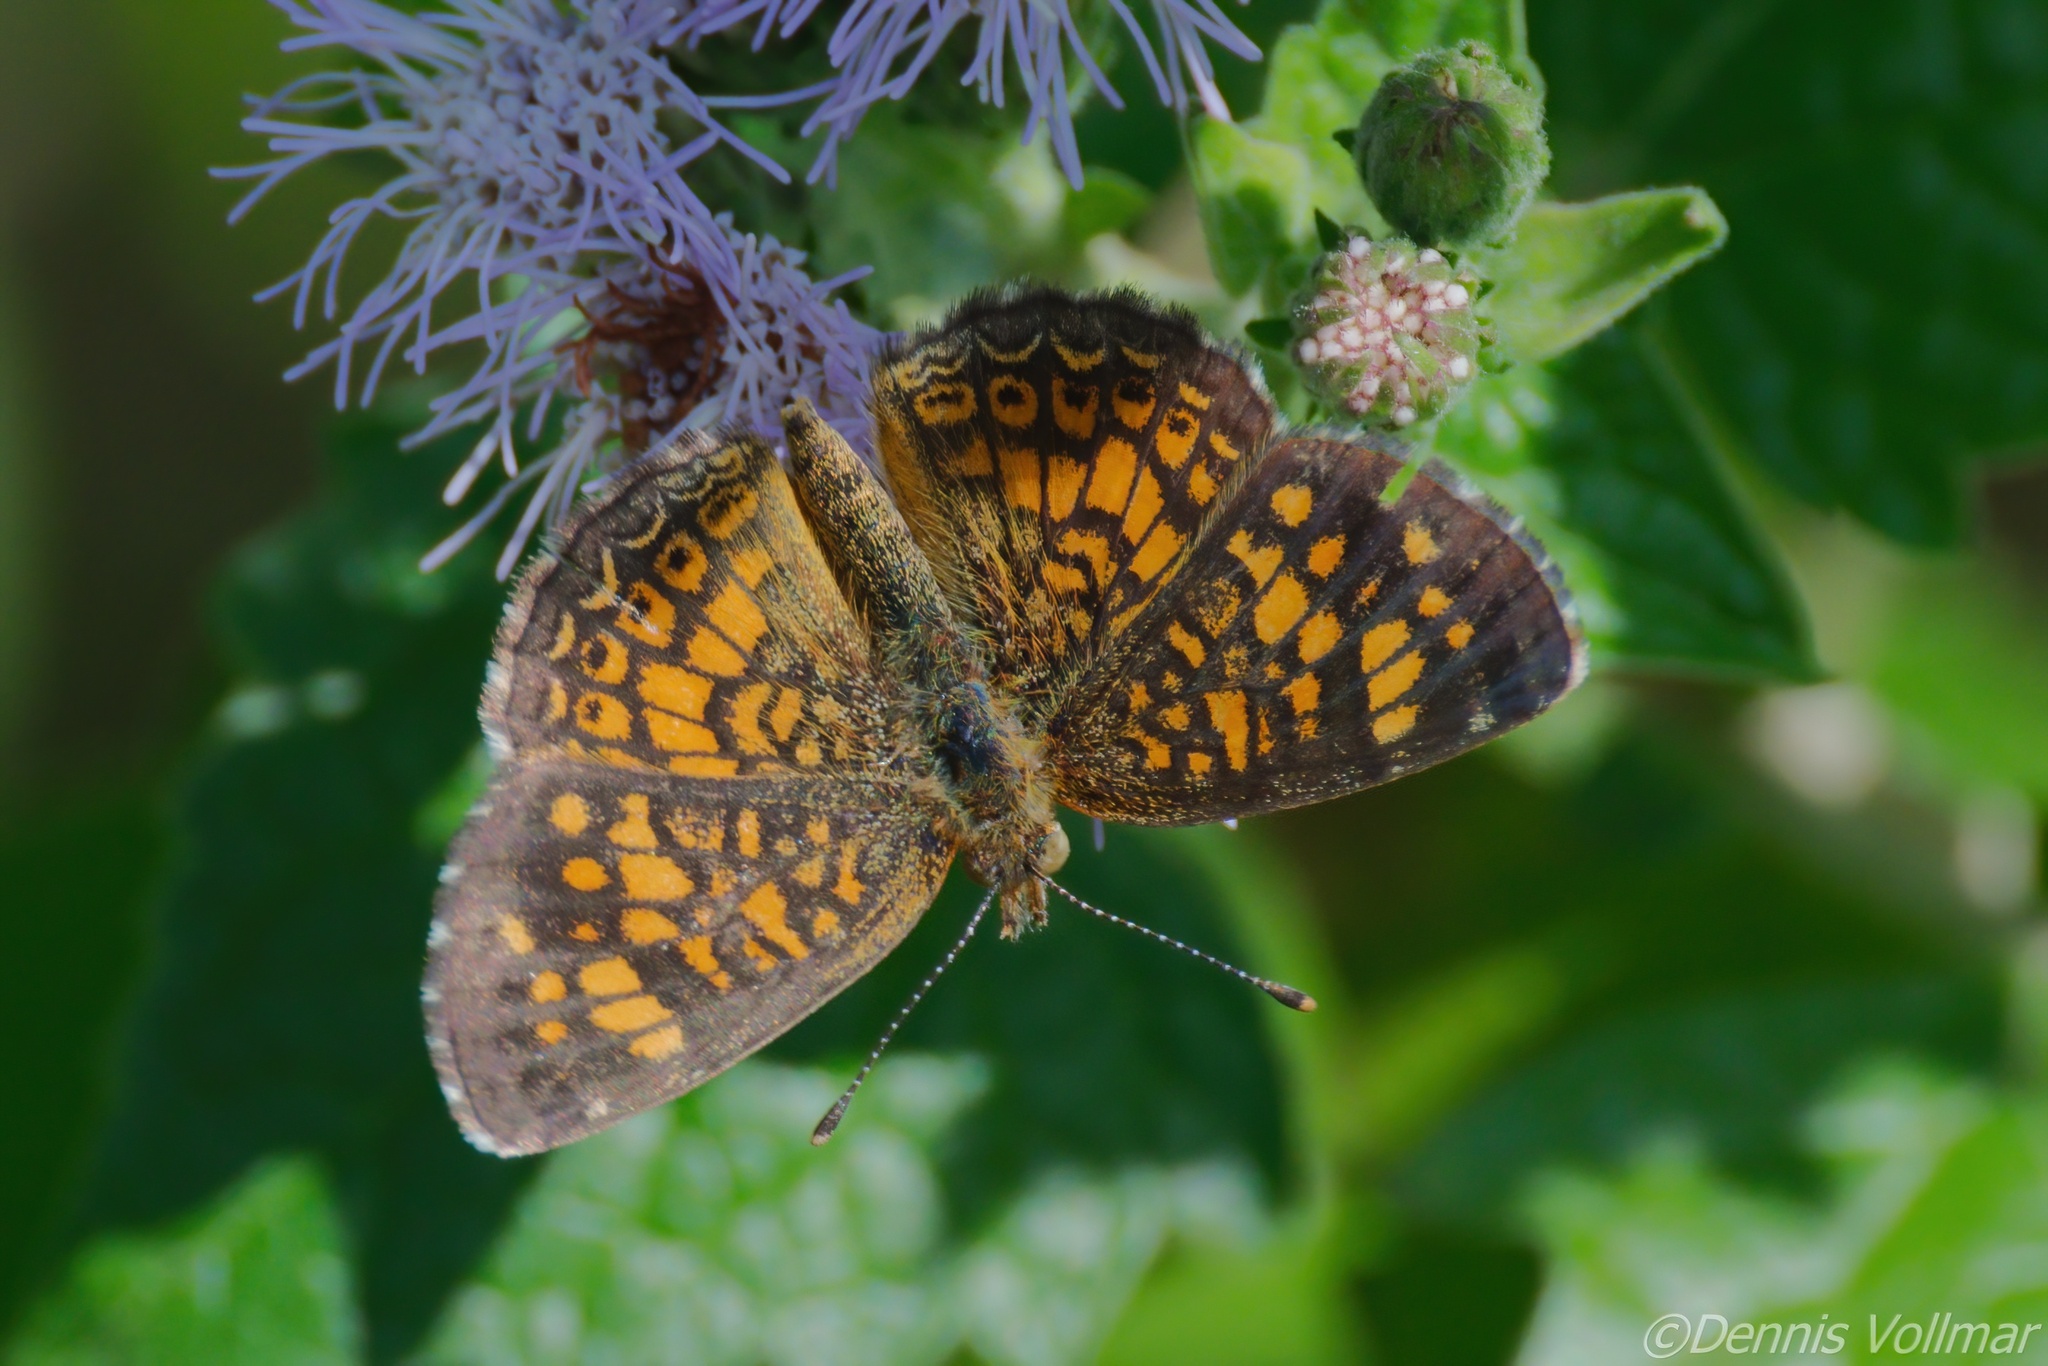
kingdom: Animalia
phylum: Arthropoda
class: Insecta
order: Lepidoptera
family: Nymphalidae
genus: Phyciodes
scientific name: Phyciodes vesta
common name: Vesta crescent
